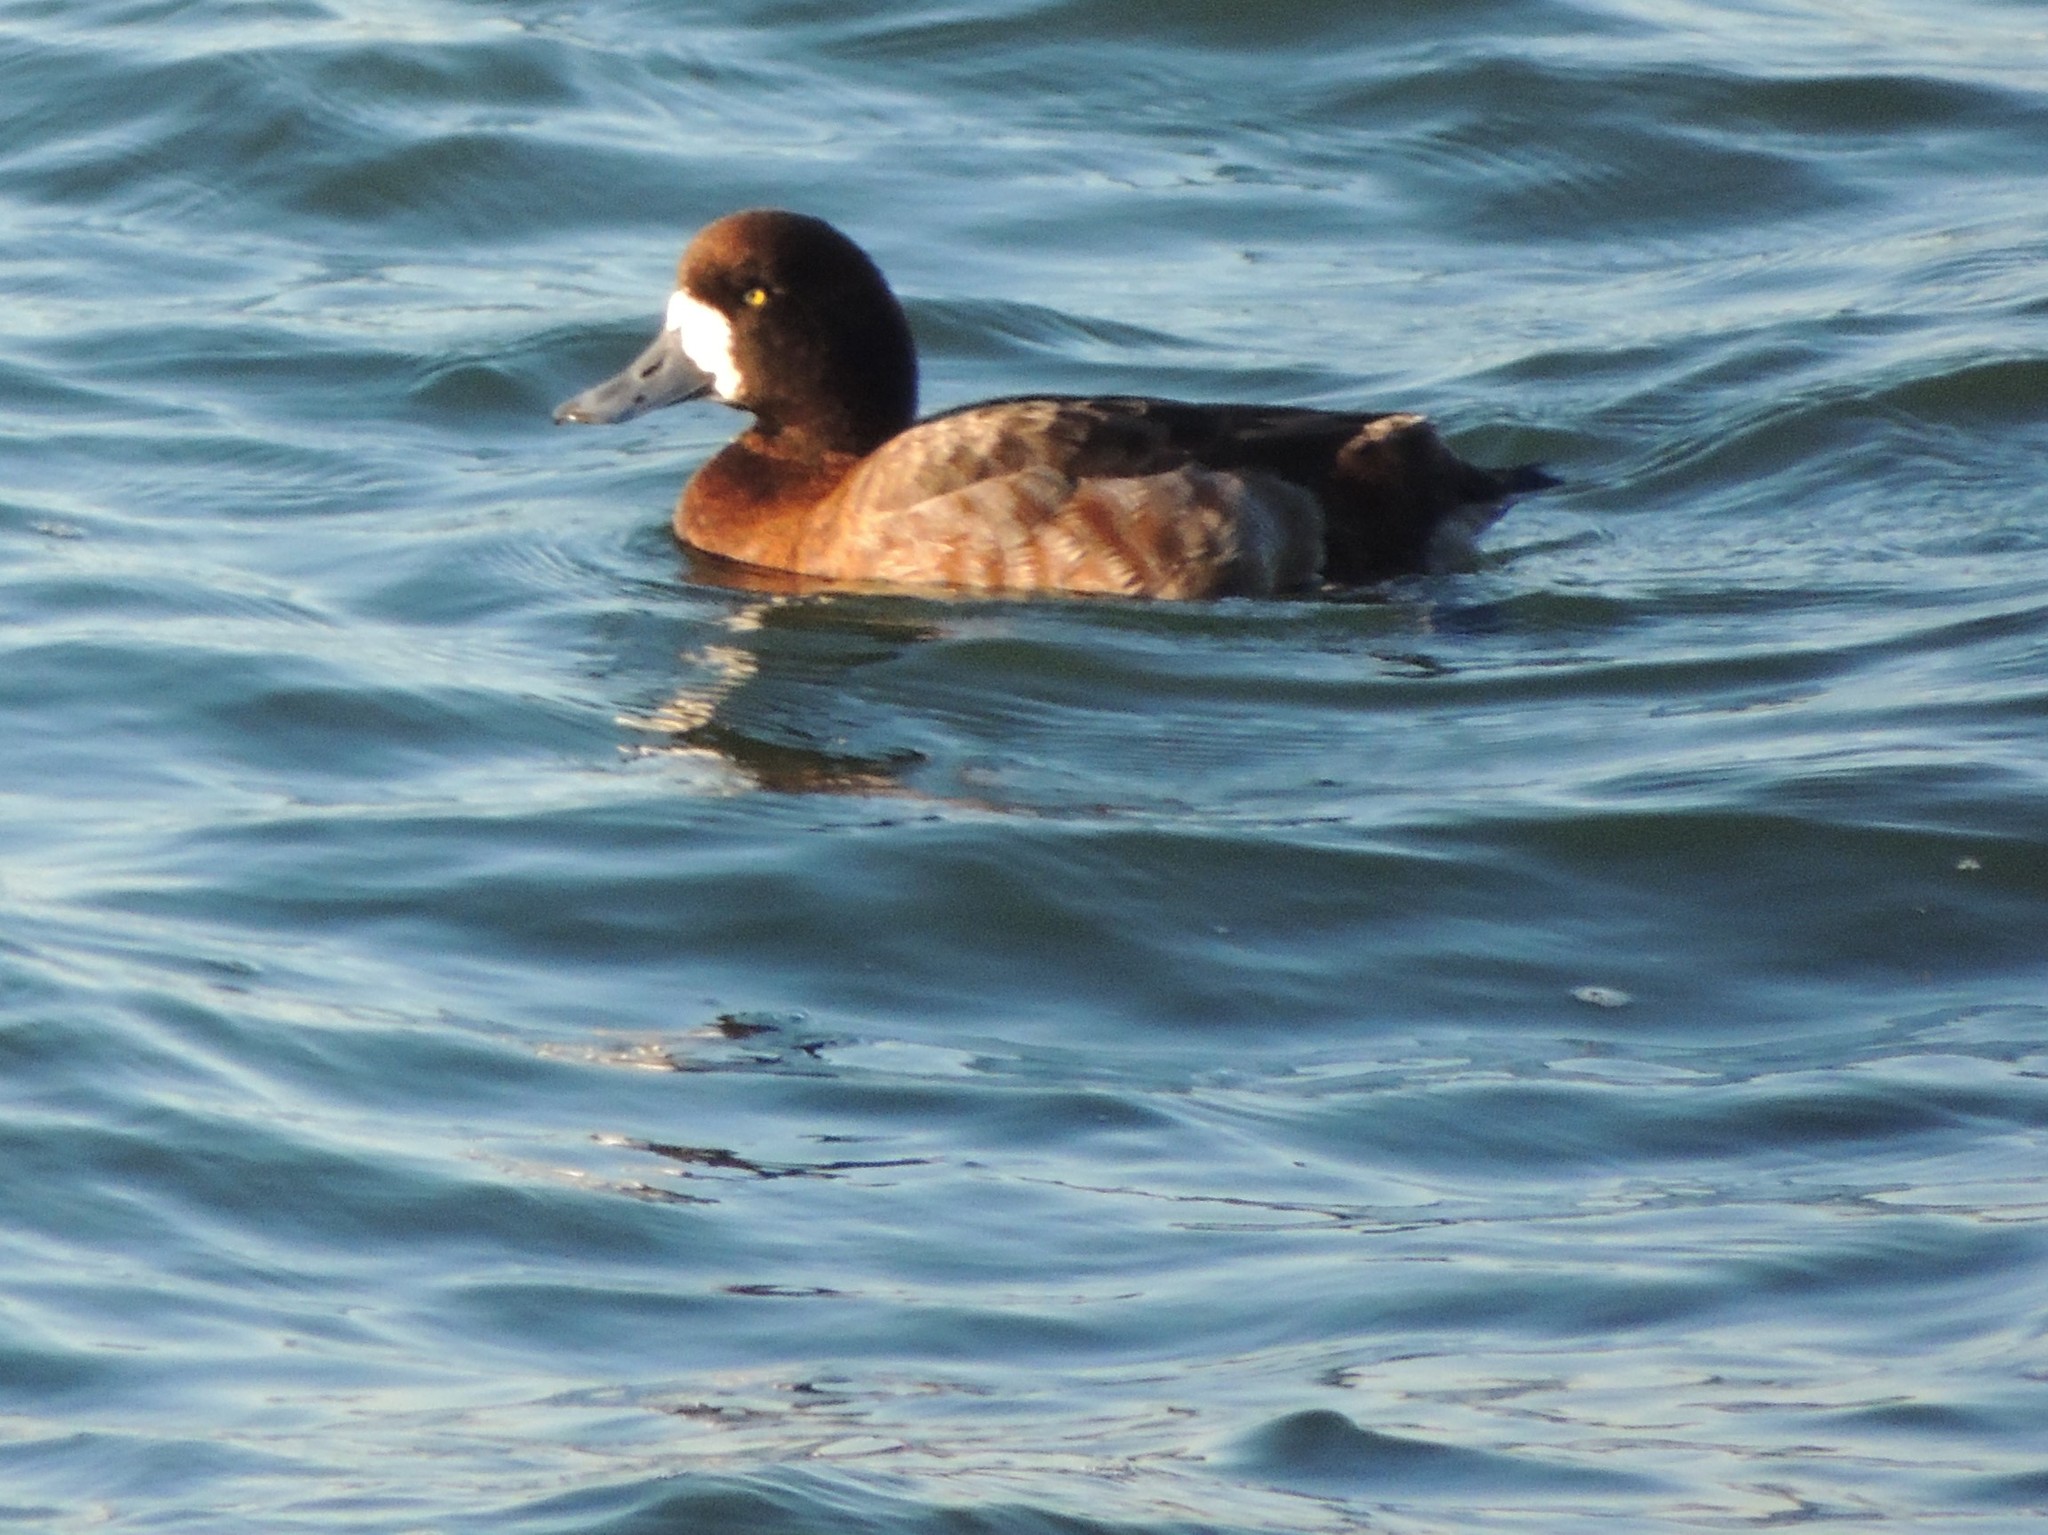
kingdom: Animalia
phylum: Chordata
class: Aves
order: Anseriformes
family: Anatidae
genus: Aythya
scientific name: Aythya marila
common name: Greater scaup
